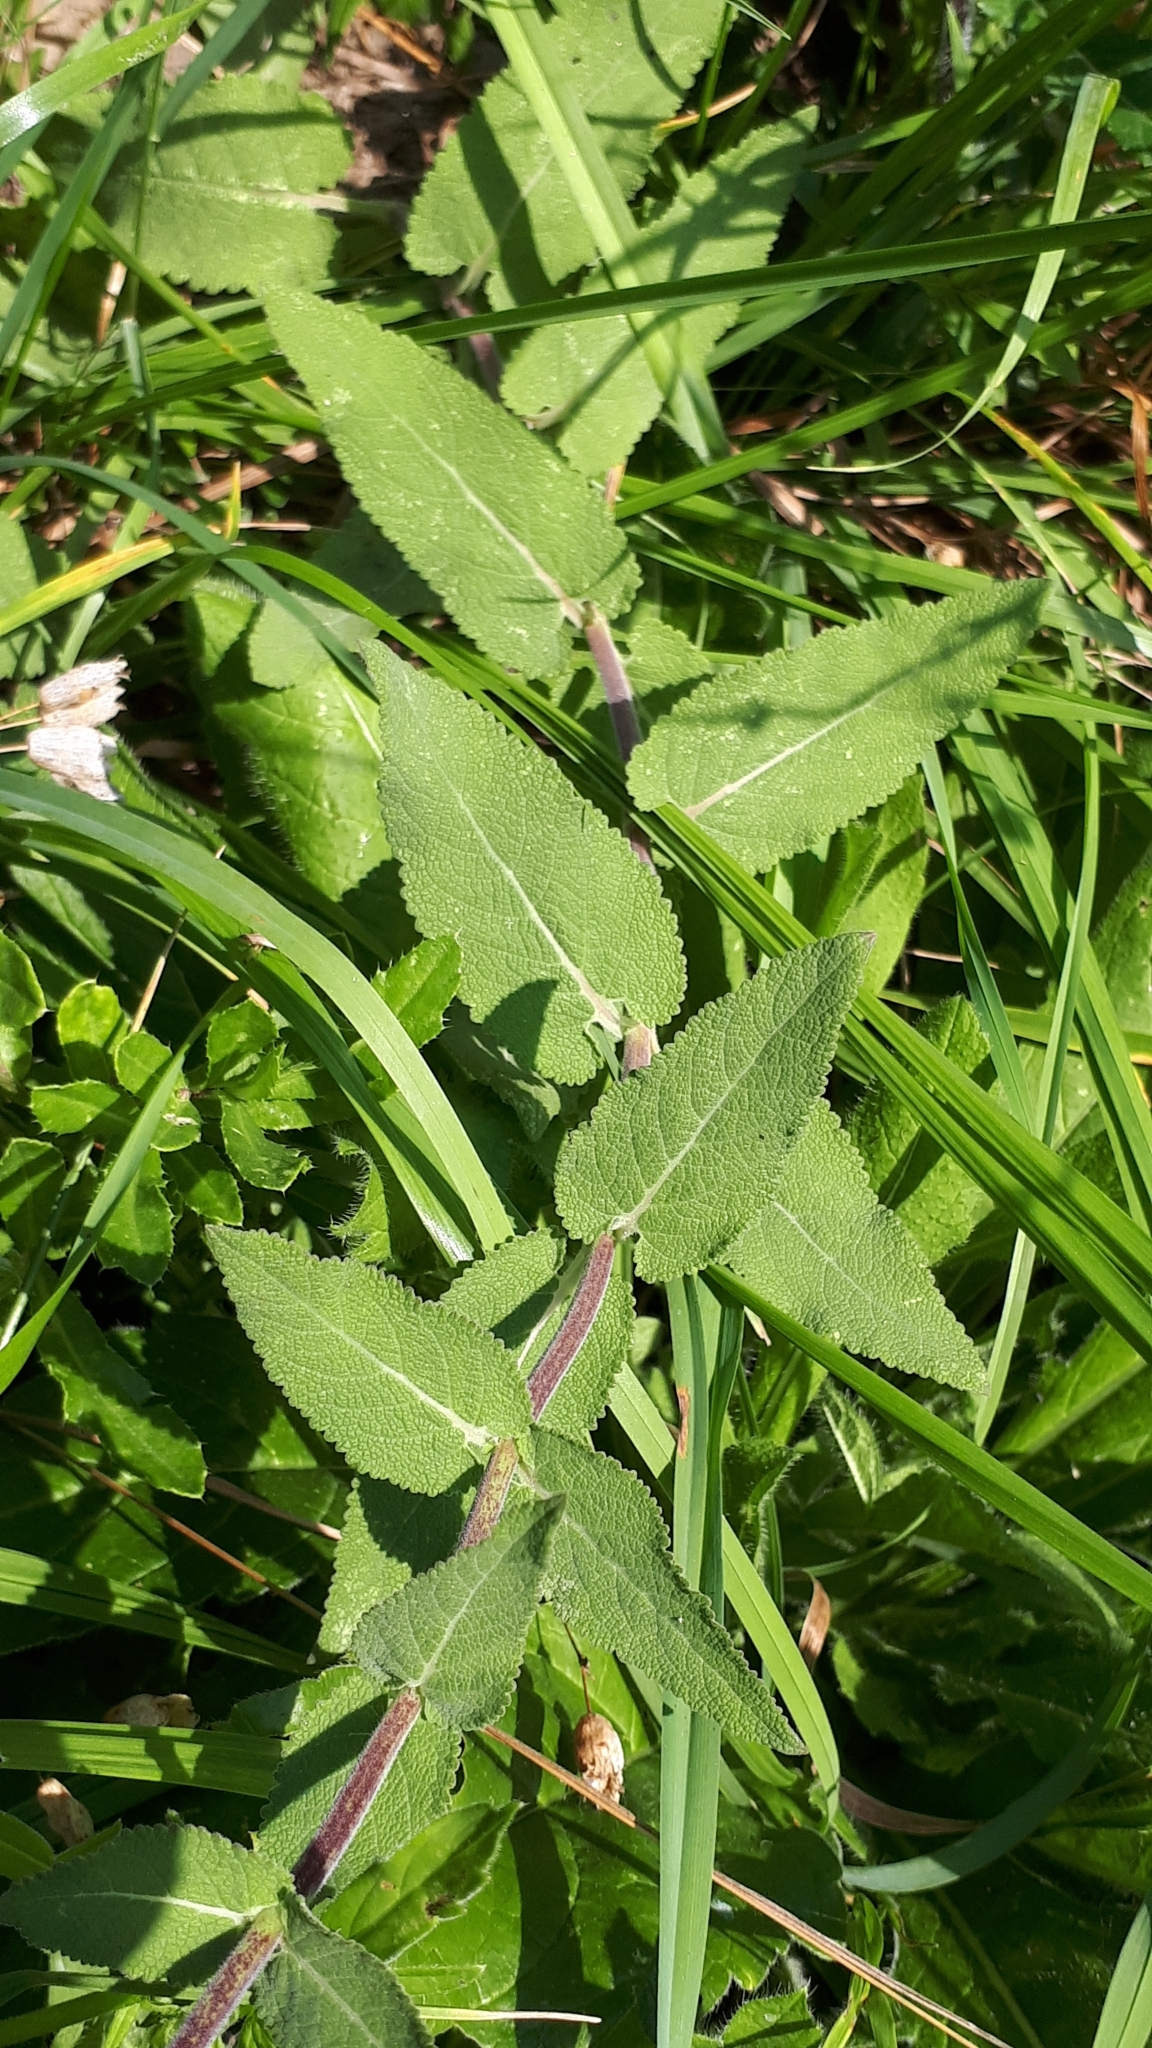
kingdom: Plantae
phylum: Tracheophyta
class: Magnoliopsida
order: Lamiales
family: Lamiaceae
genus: Salvia
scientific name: Salvia nemorosa
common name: Balkan clary
